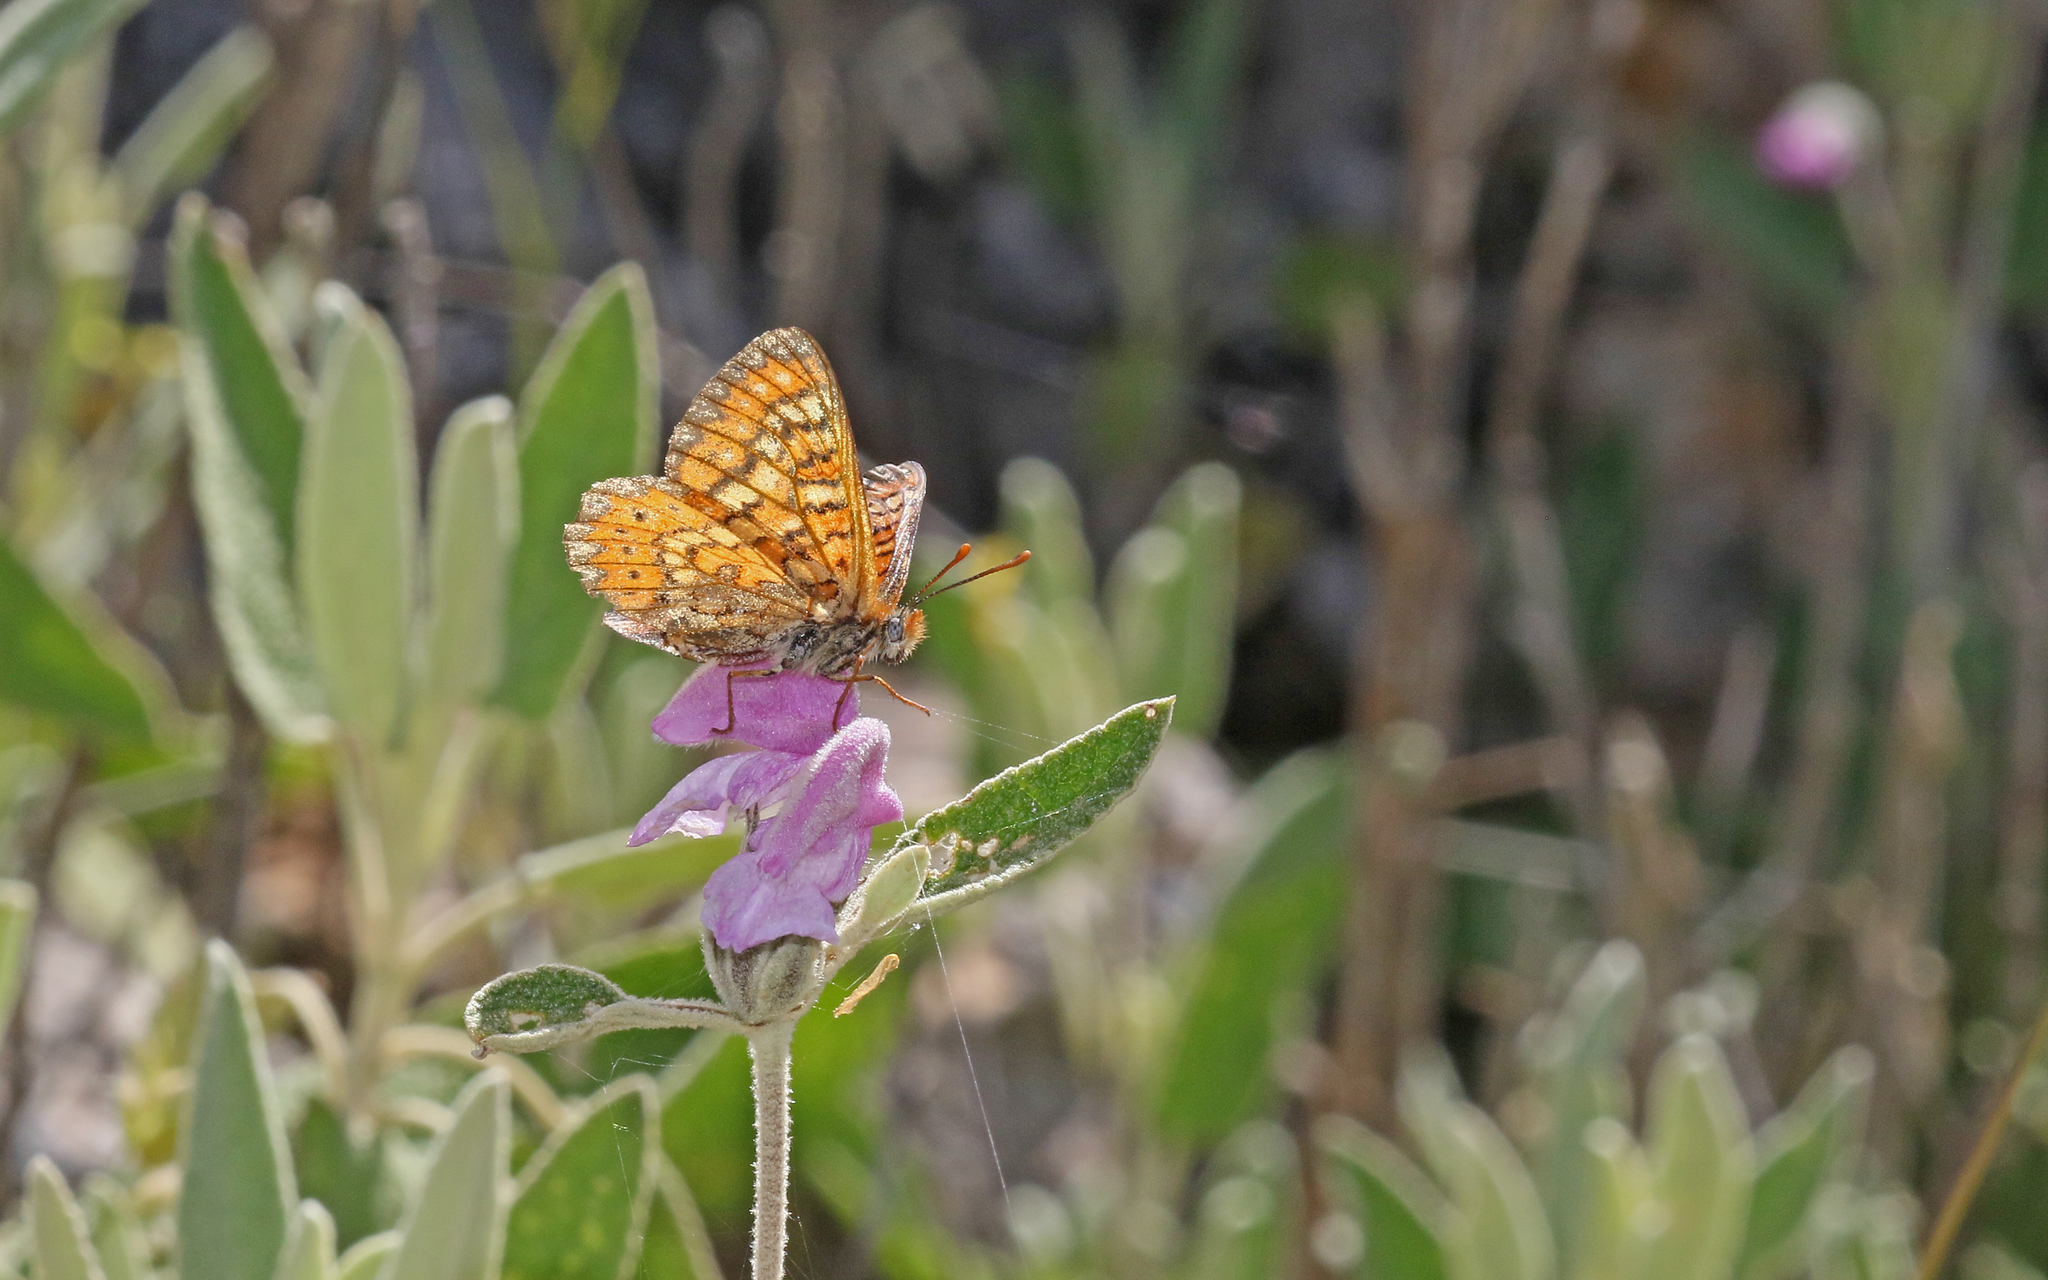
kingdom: Animalia
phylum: Arthropoda
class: Insecta
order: Lepidoptera
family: Nymphalidae
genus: Euphydryas
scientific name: Euphydryas desfontainii
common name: Spanish fritillary
